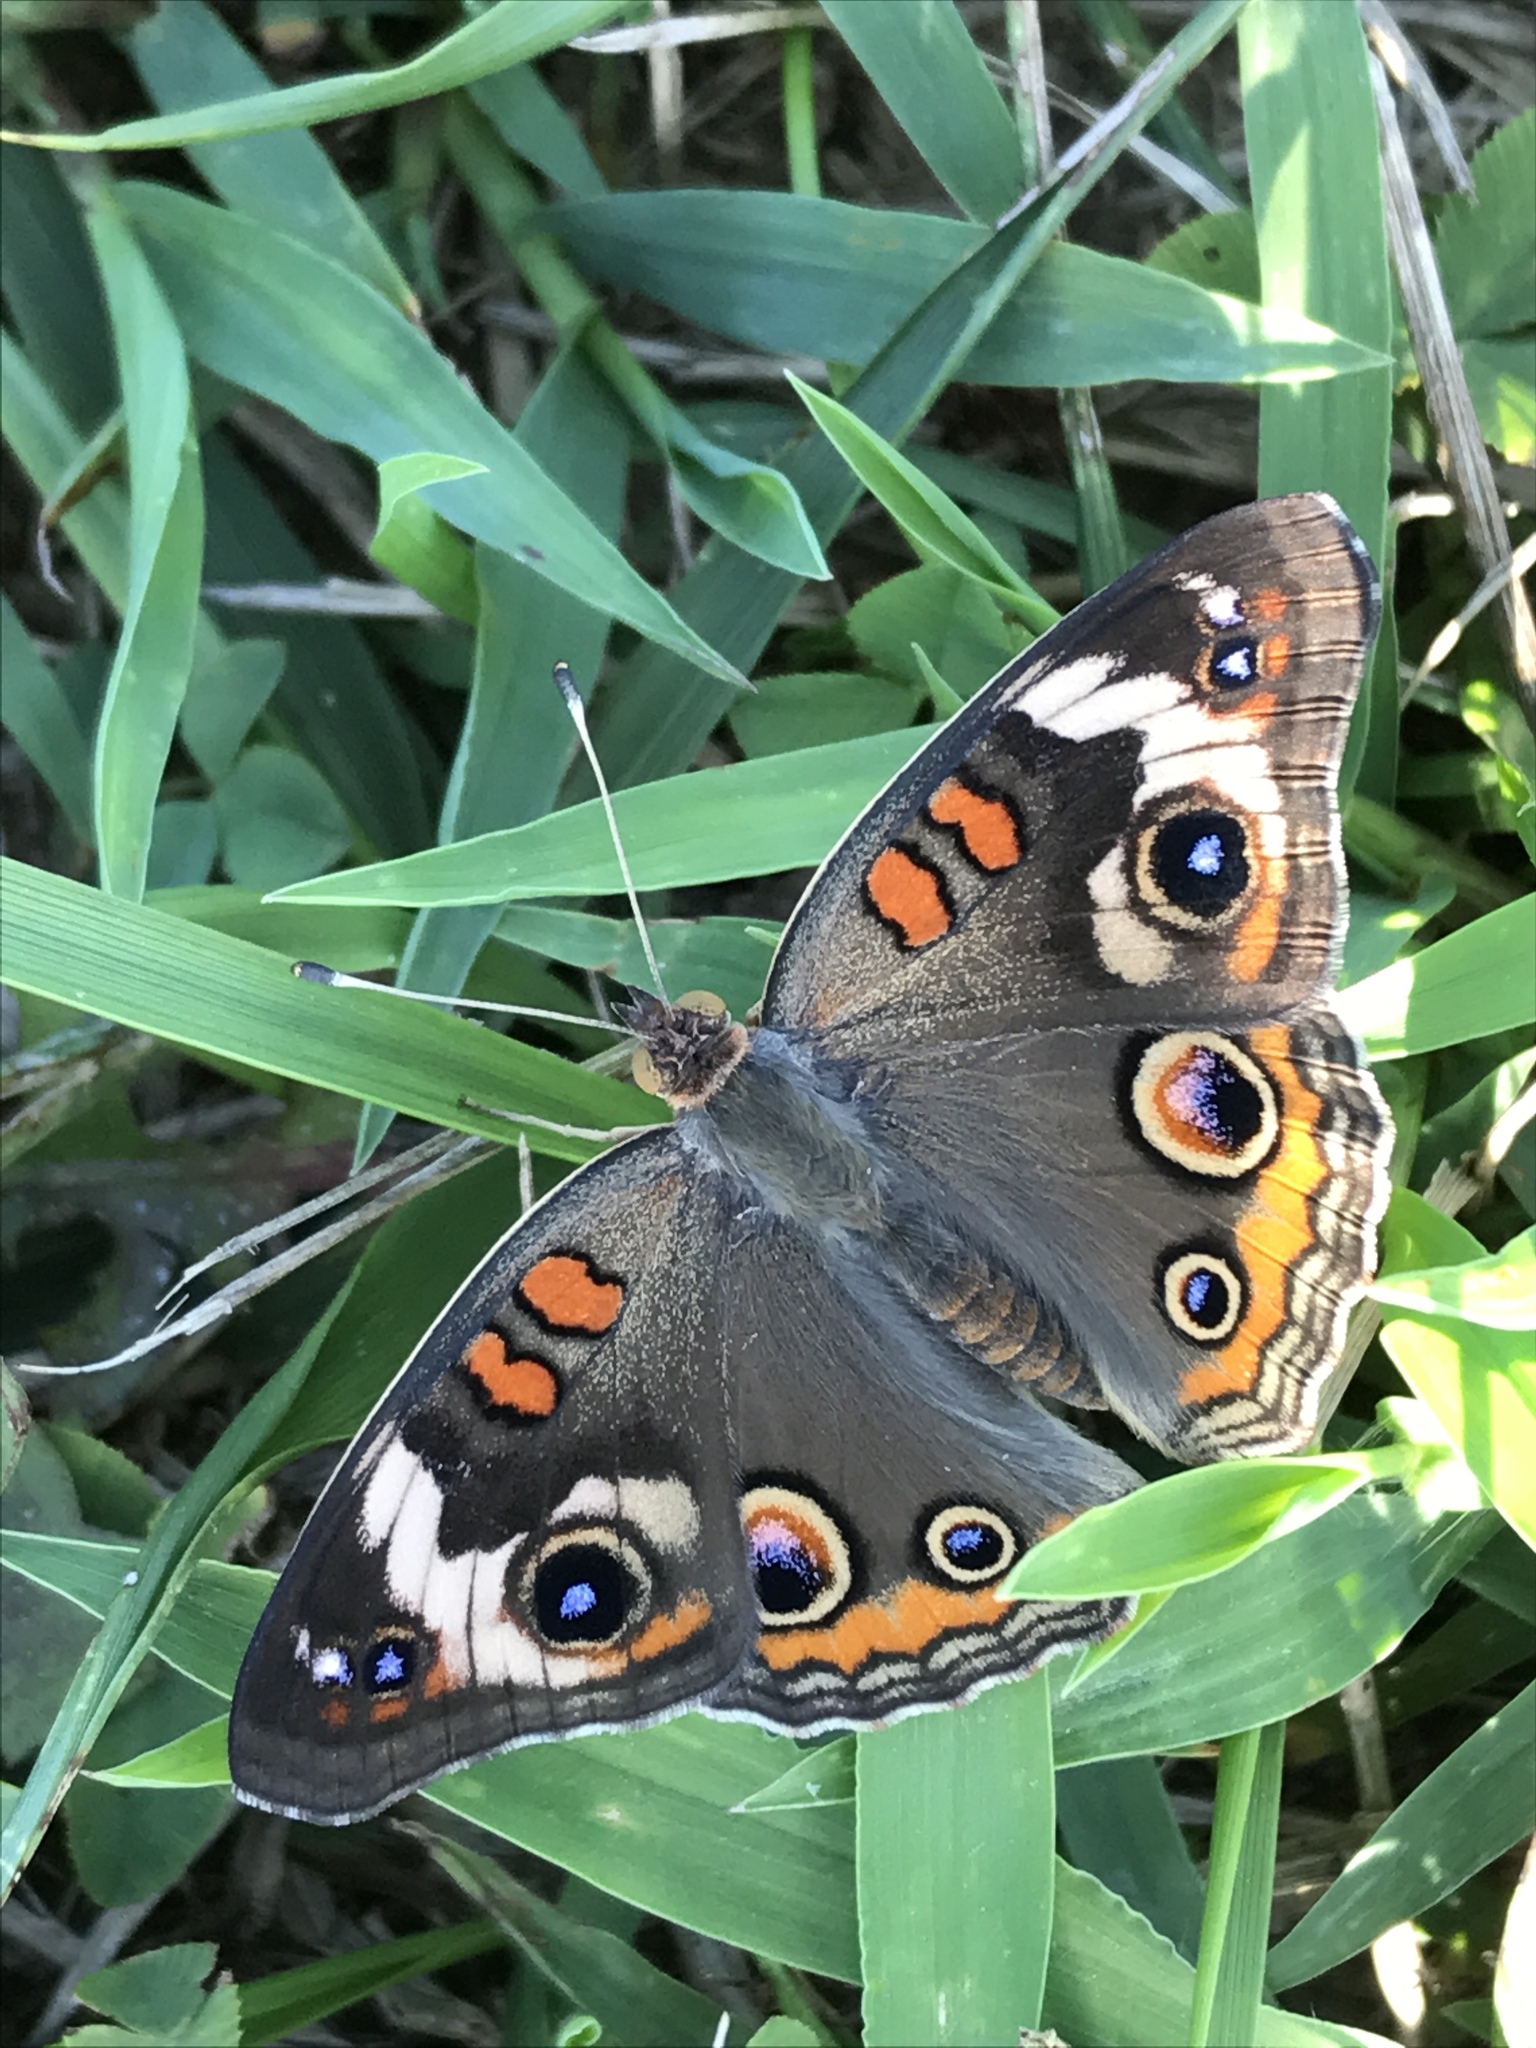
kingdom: Animalia
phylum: Arthropoda
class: Insecta
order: Lepidoptera
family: Nymphalidae
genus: Junonia
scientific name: Junonia coenia
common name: Common buckeye
